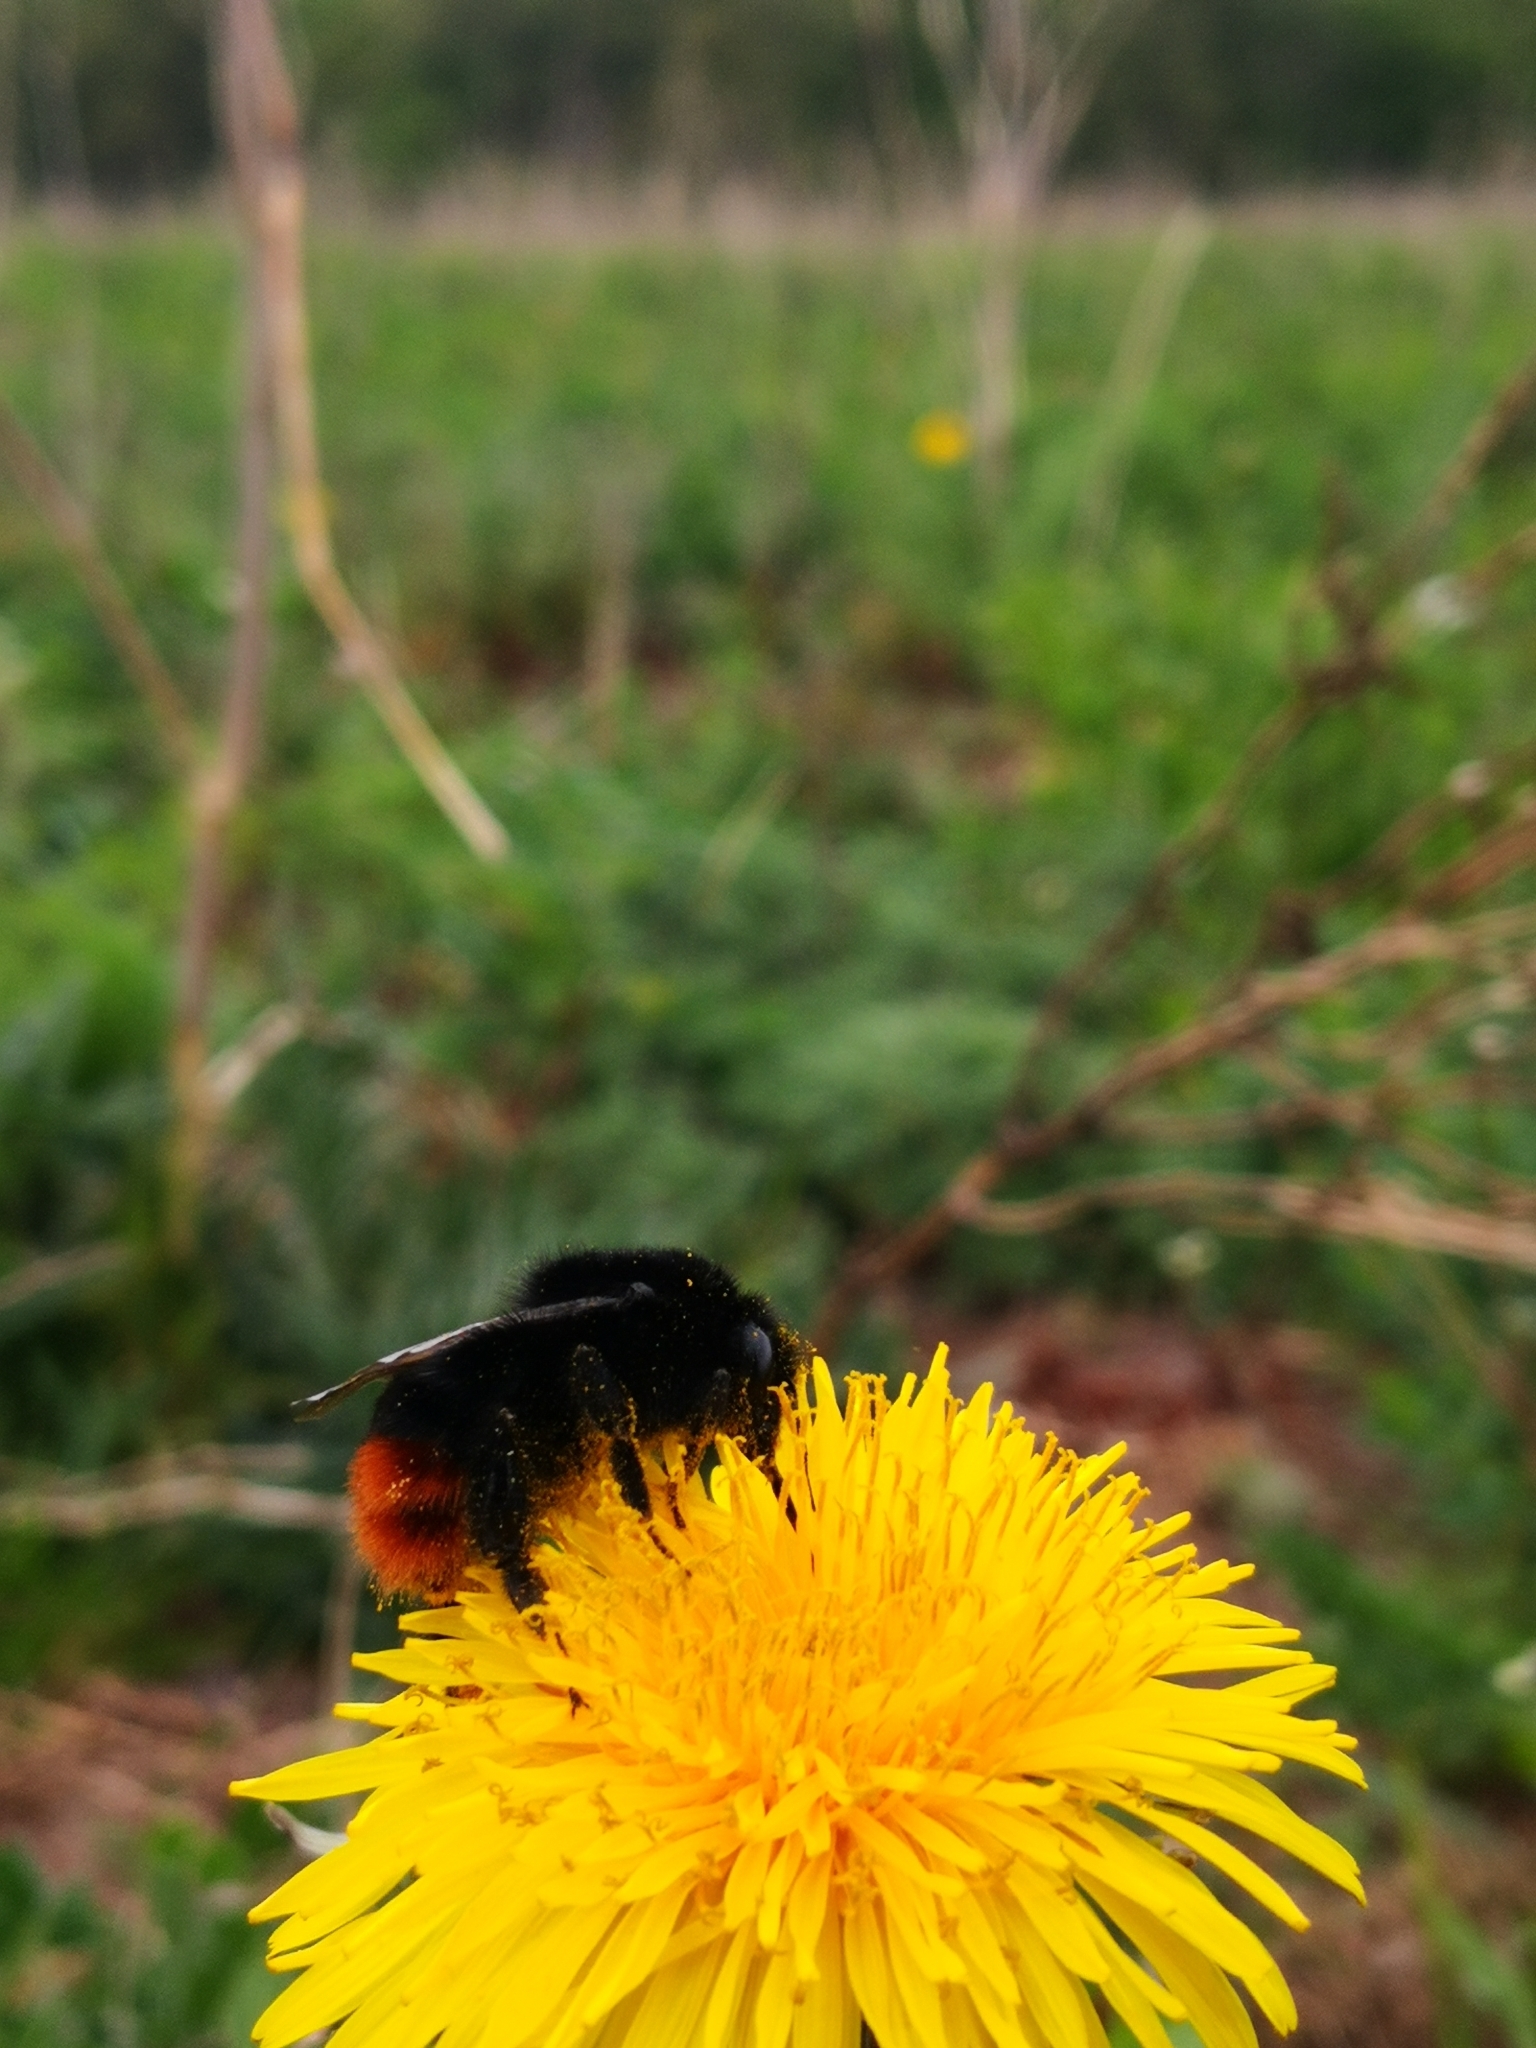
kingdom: Animalia
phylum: Arthropoda
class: Insecta
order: Hymenoptera
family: Apidae
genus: Bombus
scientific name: Bombus lapidarius
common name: Large red-tailed humble-bee
